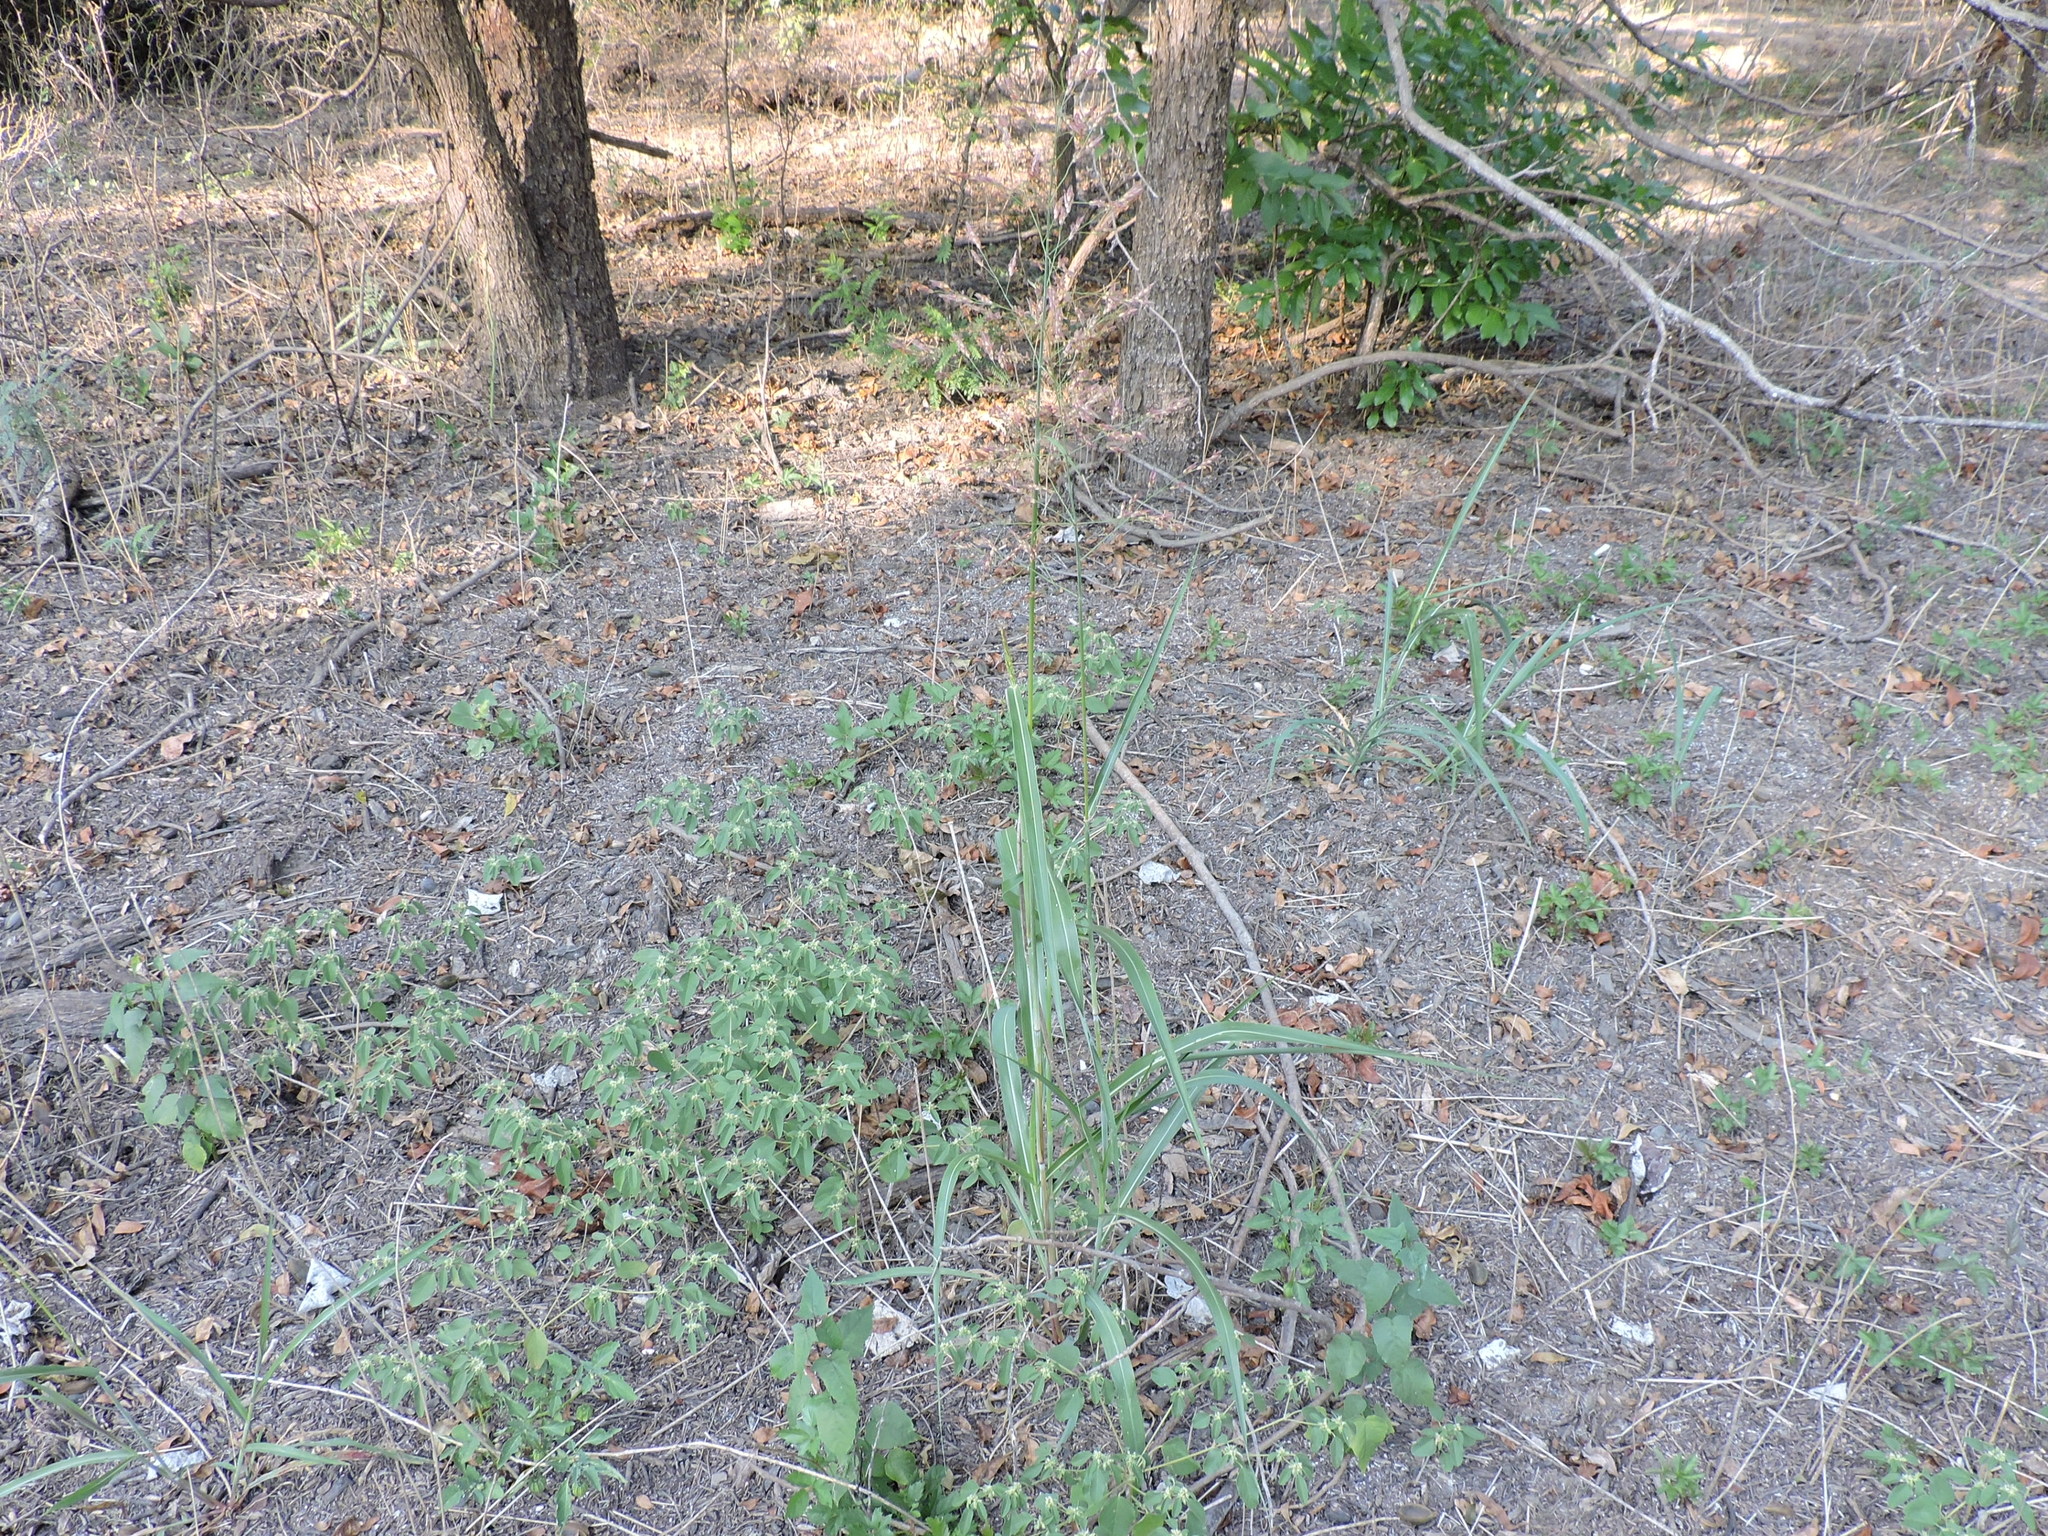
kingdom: Plantae
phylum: Tracheophyta
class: Liliopsida
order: Poales
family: Poaceae
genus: Sorghum
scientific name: Sorghum halepense
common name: Johnson-grass
